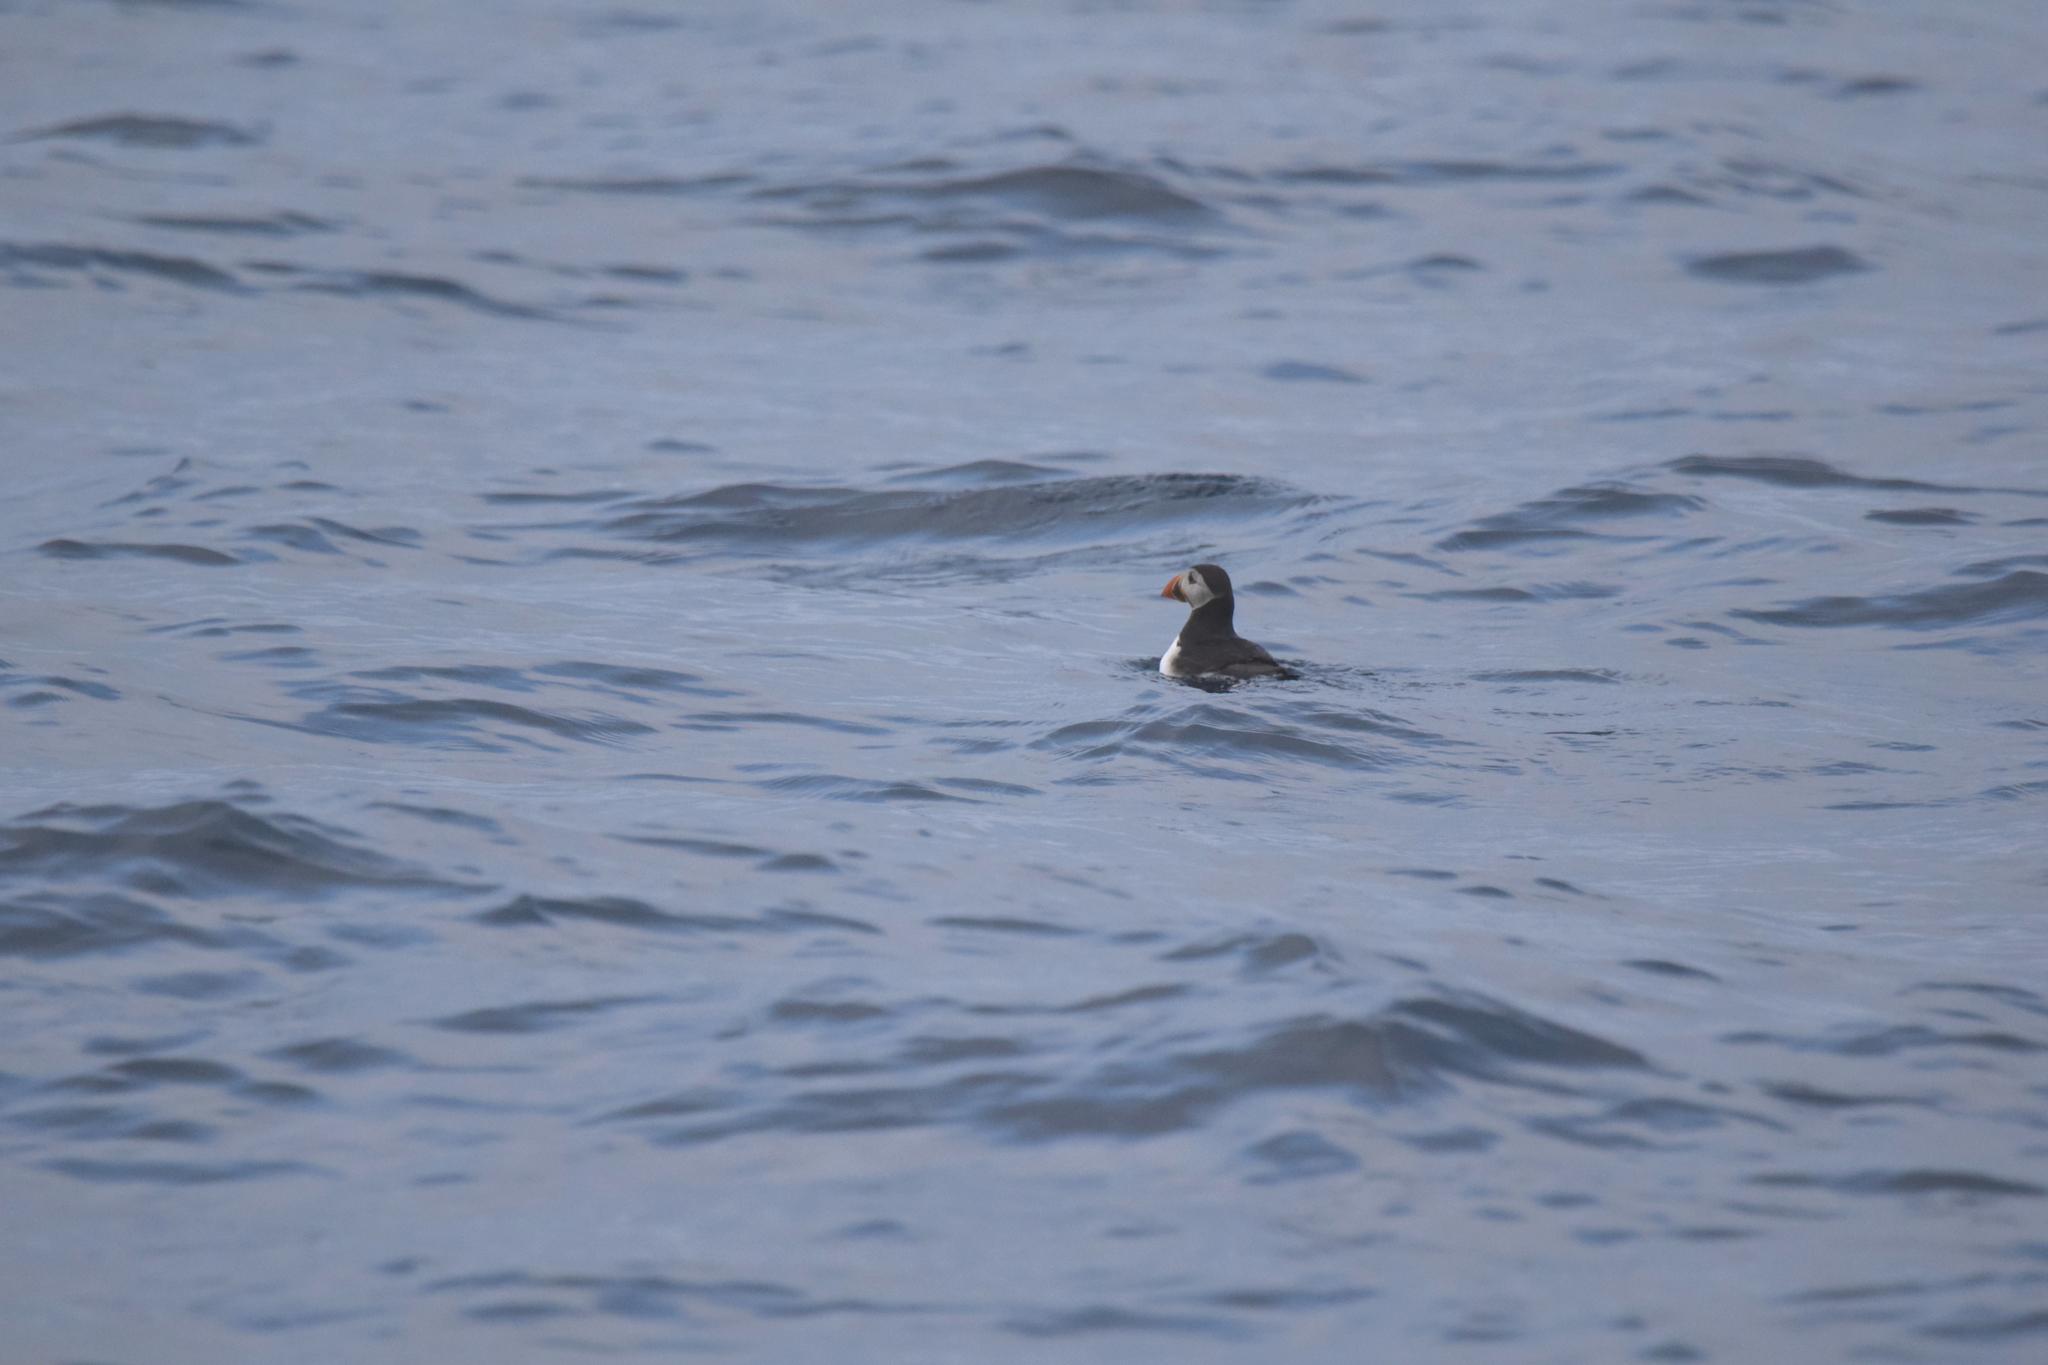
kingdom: Animalia
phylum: Chordata
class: Aves
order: Charadriiformes
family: Alcidae
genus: Fratercula
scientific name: Fratercula arctica
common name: Atlantic puffin
